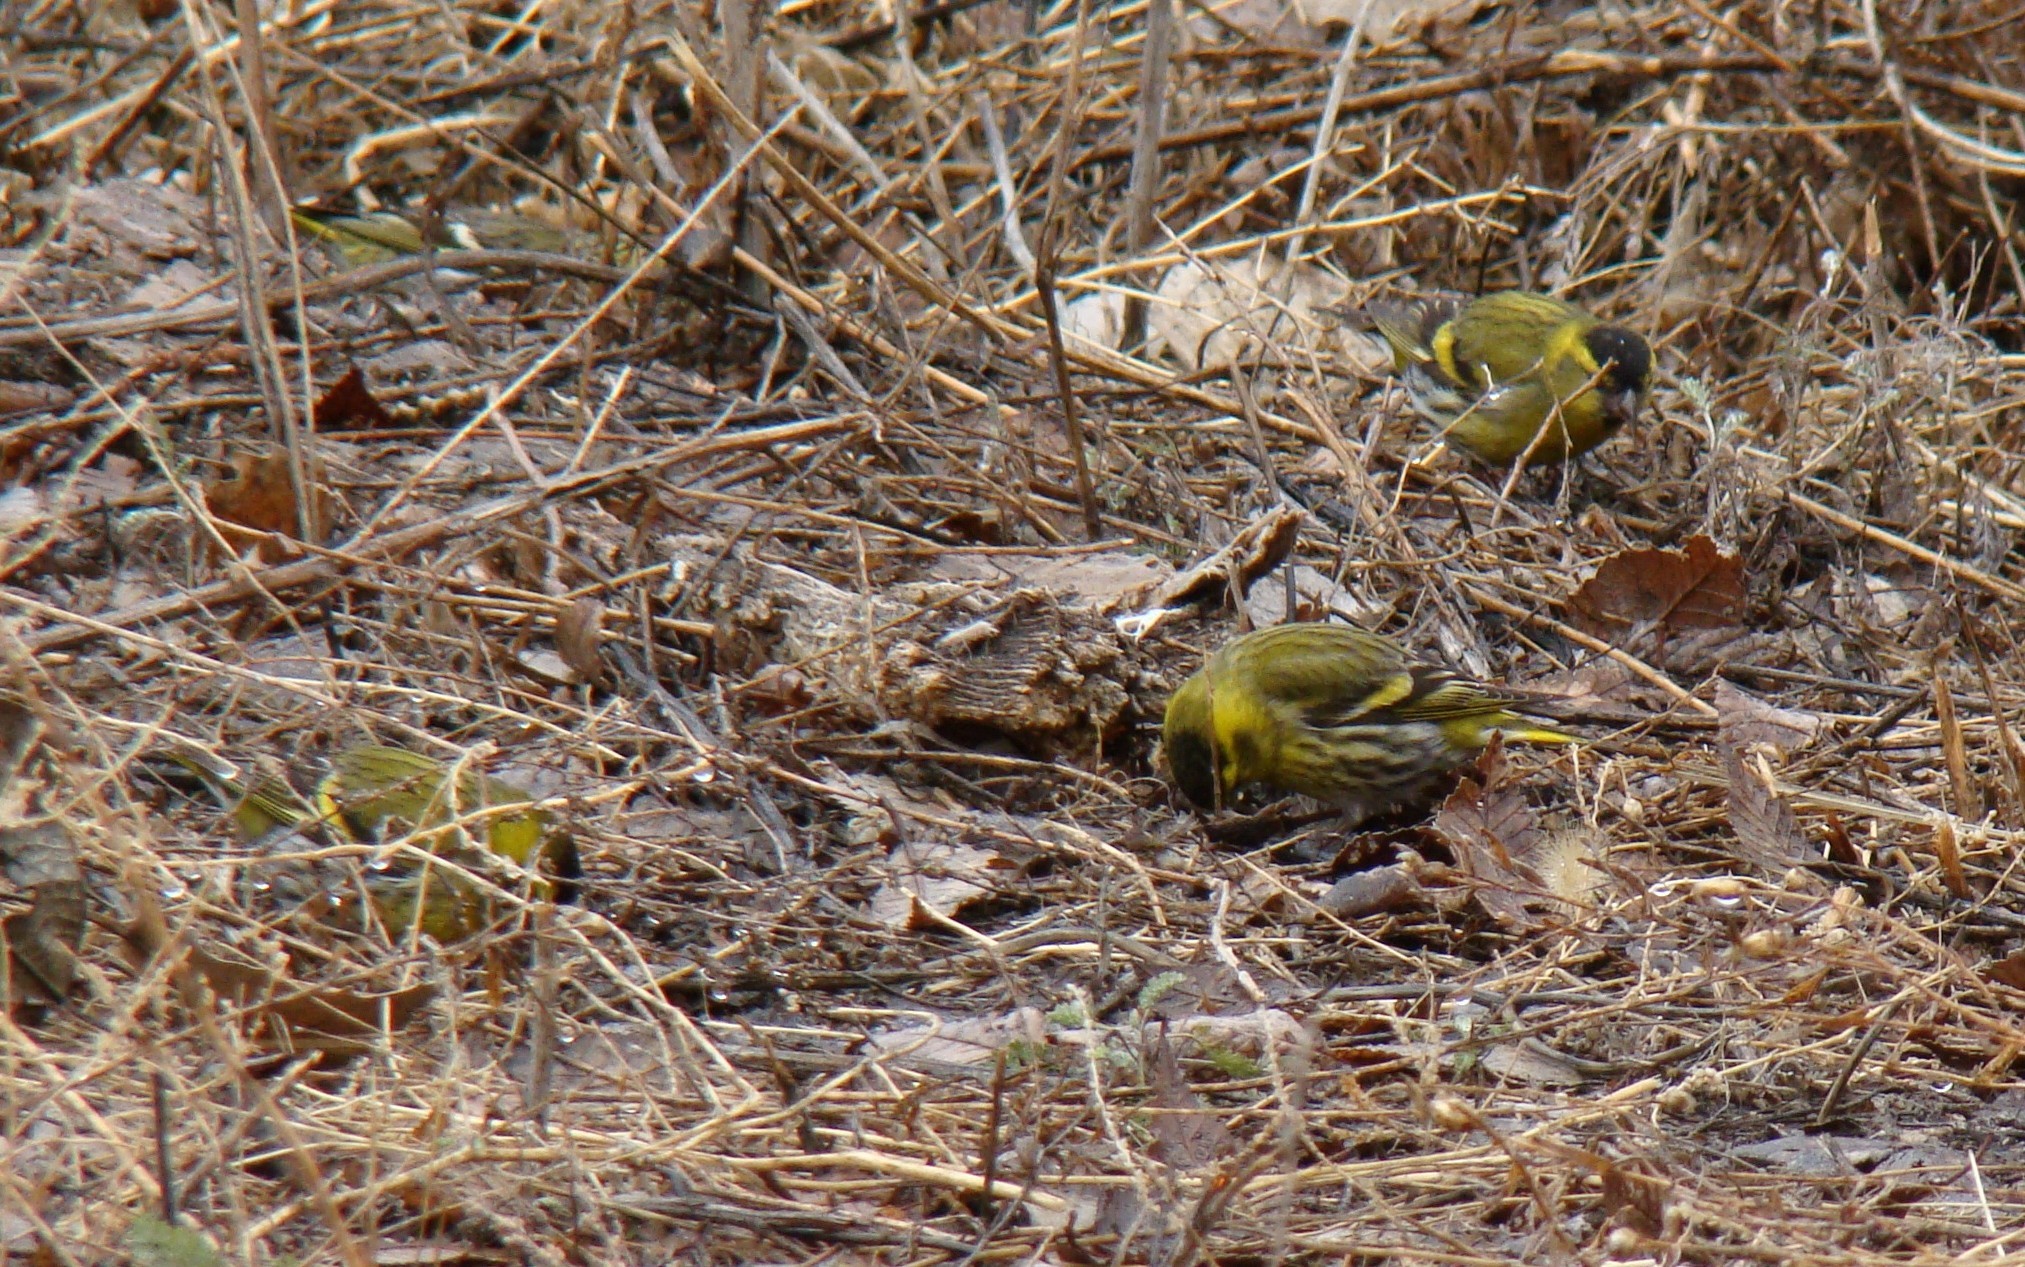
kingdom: Animalia
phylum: Chordata
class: Aves
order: Passeriformes
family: Fringillidae
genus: Spinus
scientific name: Spinus spinus
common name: Eurasian siskin
